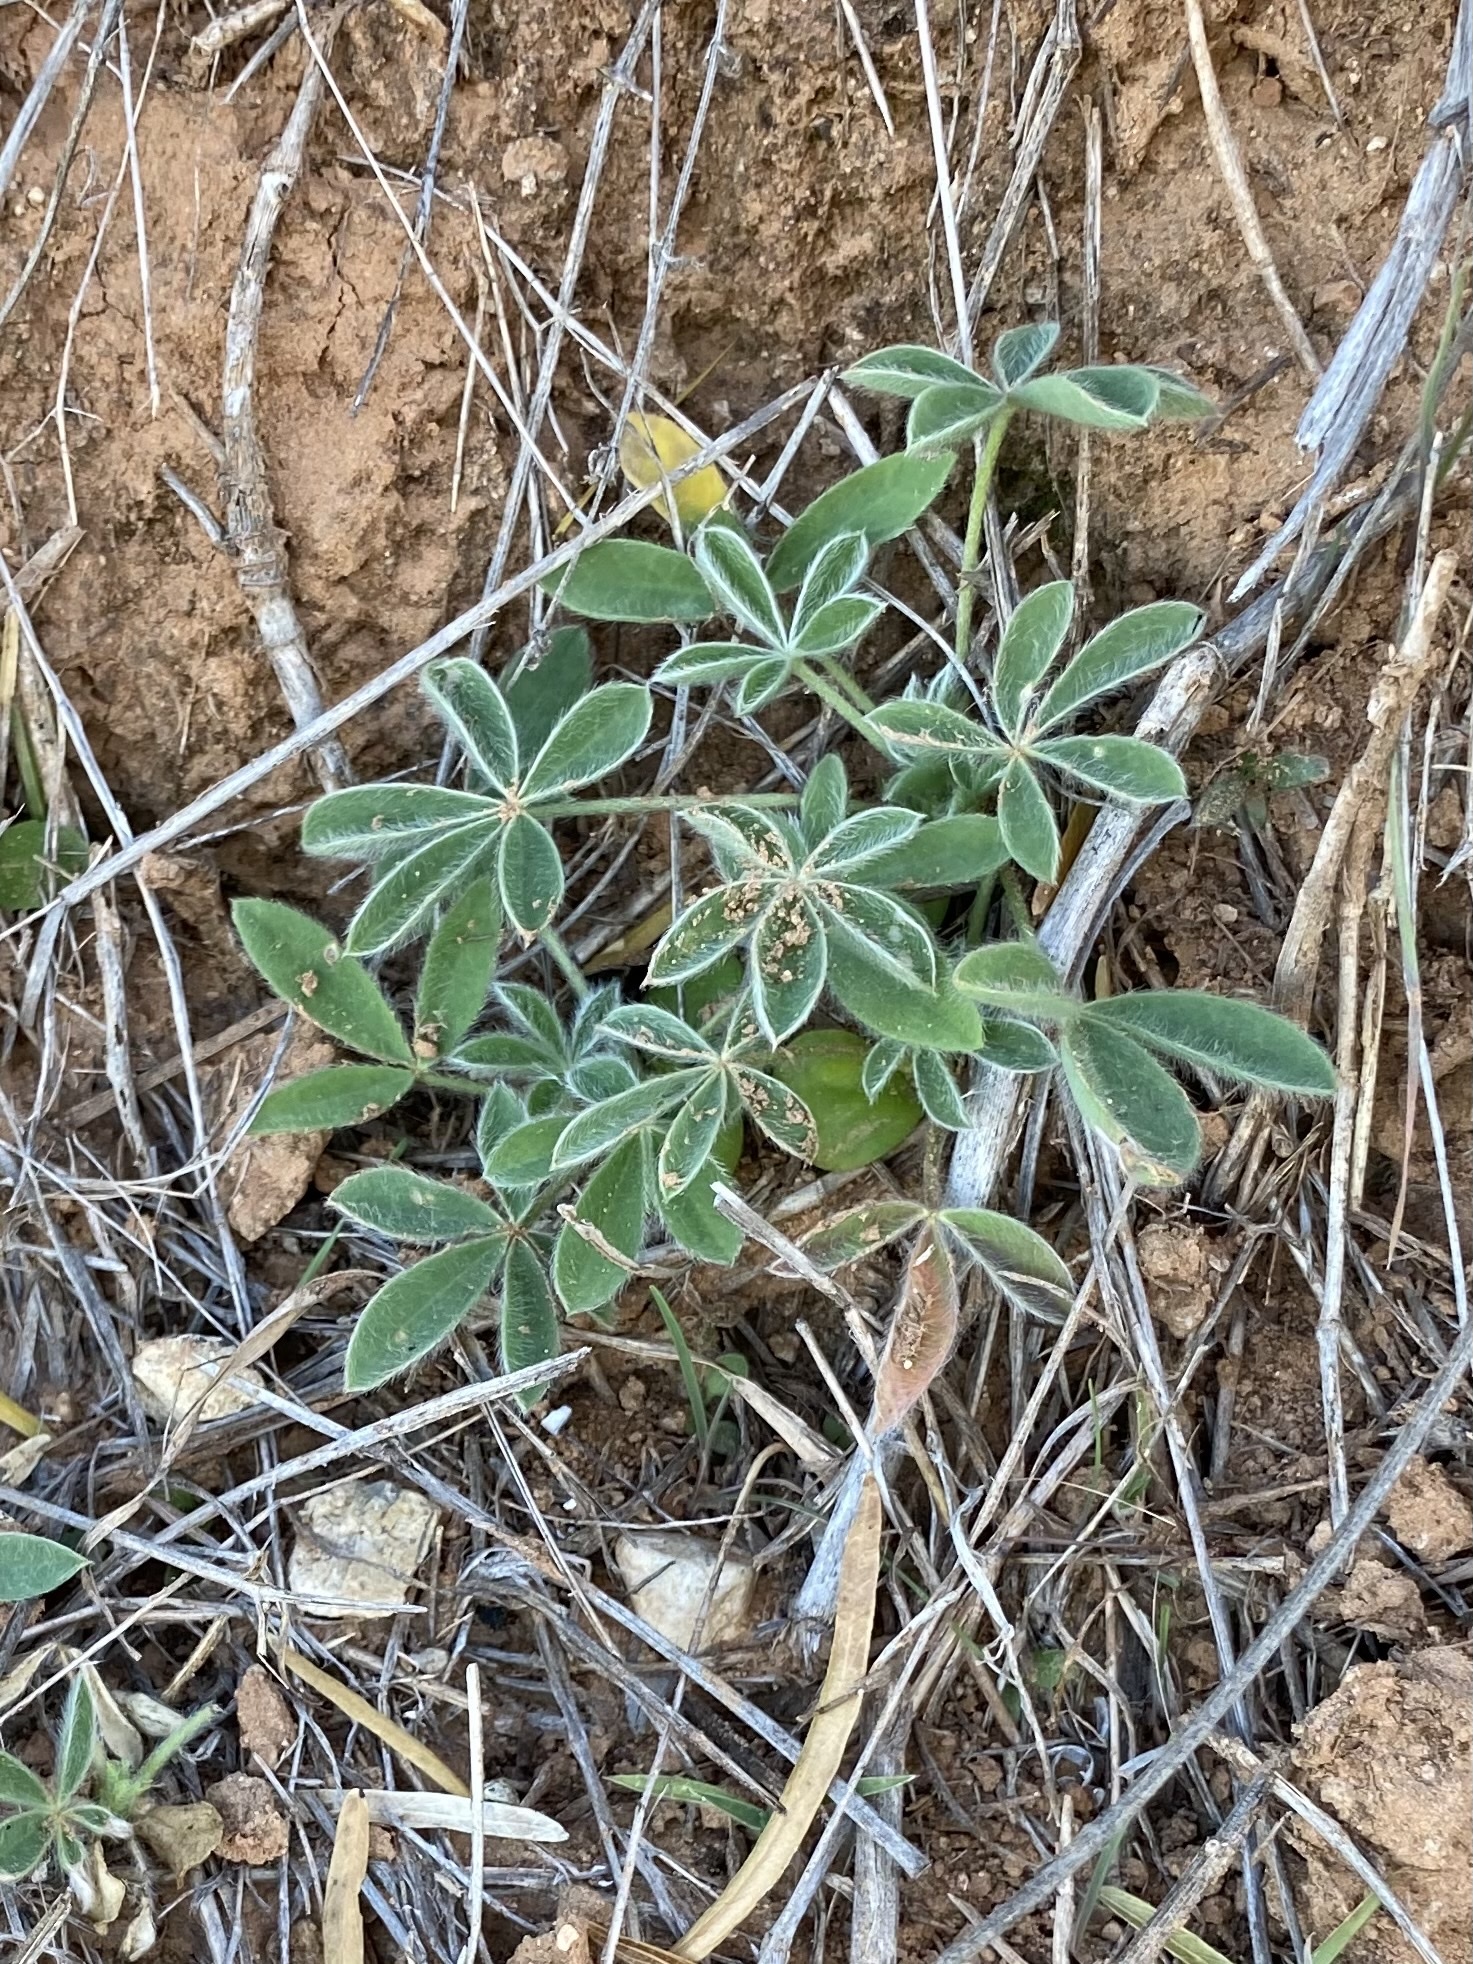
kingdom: Plantae
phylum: Tracheophyta
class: Magnoliopsida
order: Fabales
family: Fabaceae
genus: Lupinus
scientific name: Lupinus texensis
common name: Texas bluebonnet
